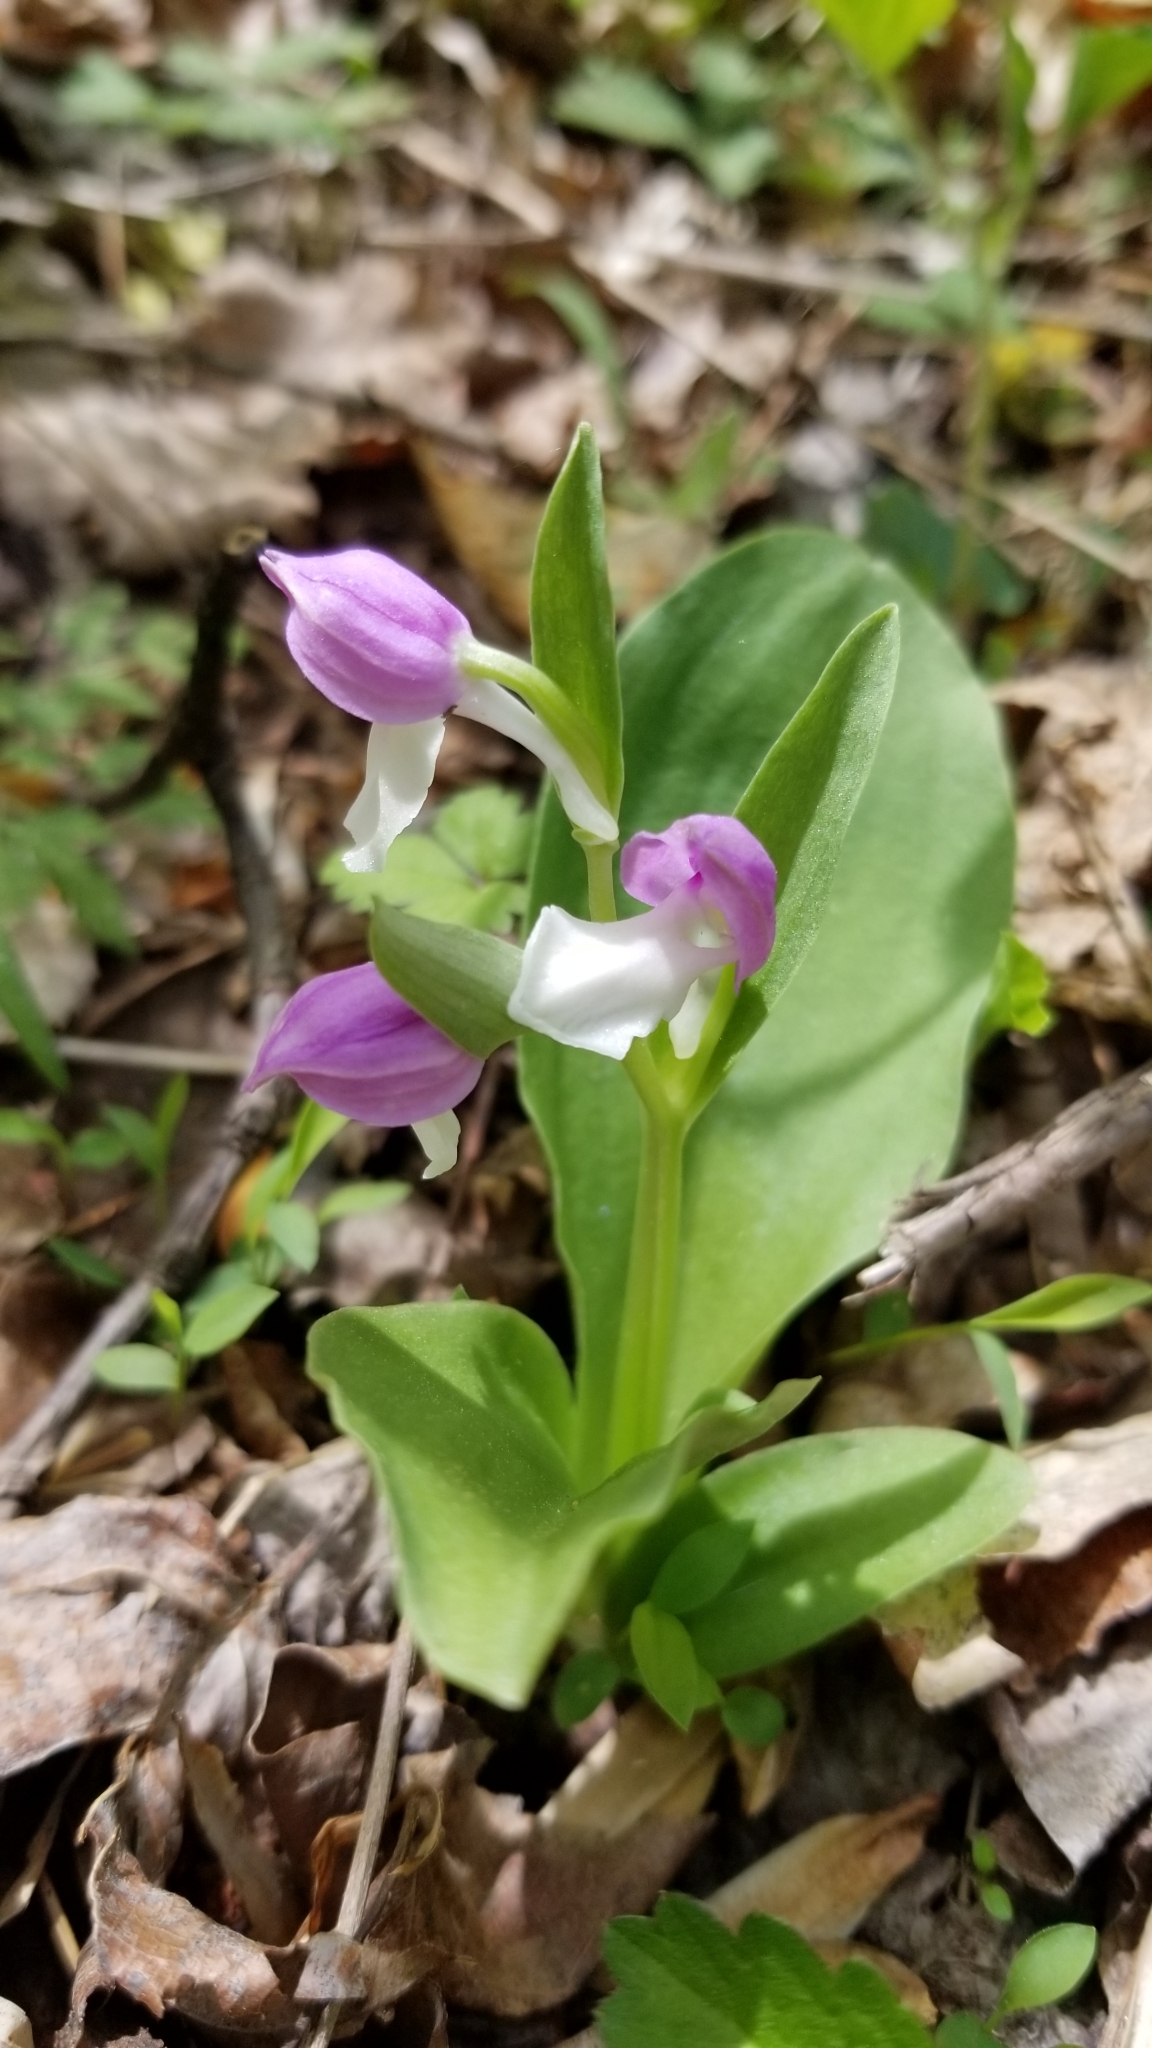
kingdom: Plantae
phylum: Tracheophyta
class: Liliopsida
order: Asparagales
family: Orchidaceae
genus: Galearis
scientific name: Galearis spectabilis
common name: Purple-hooded orchis
